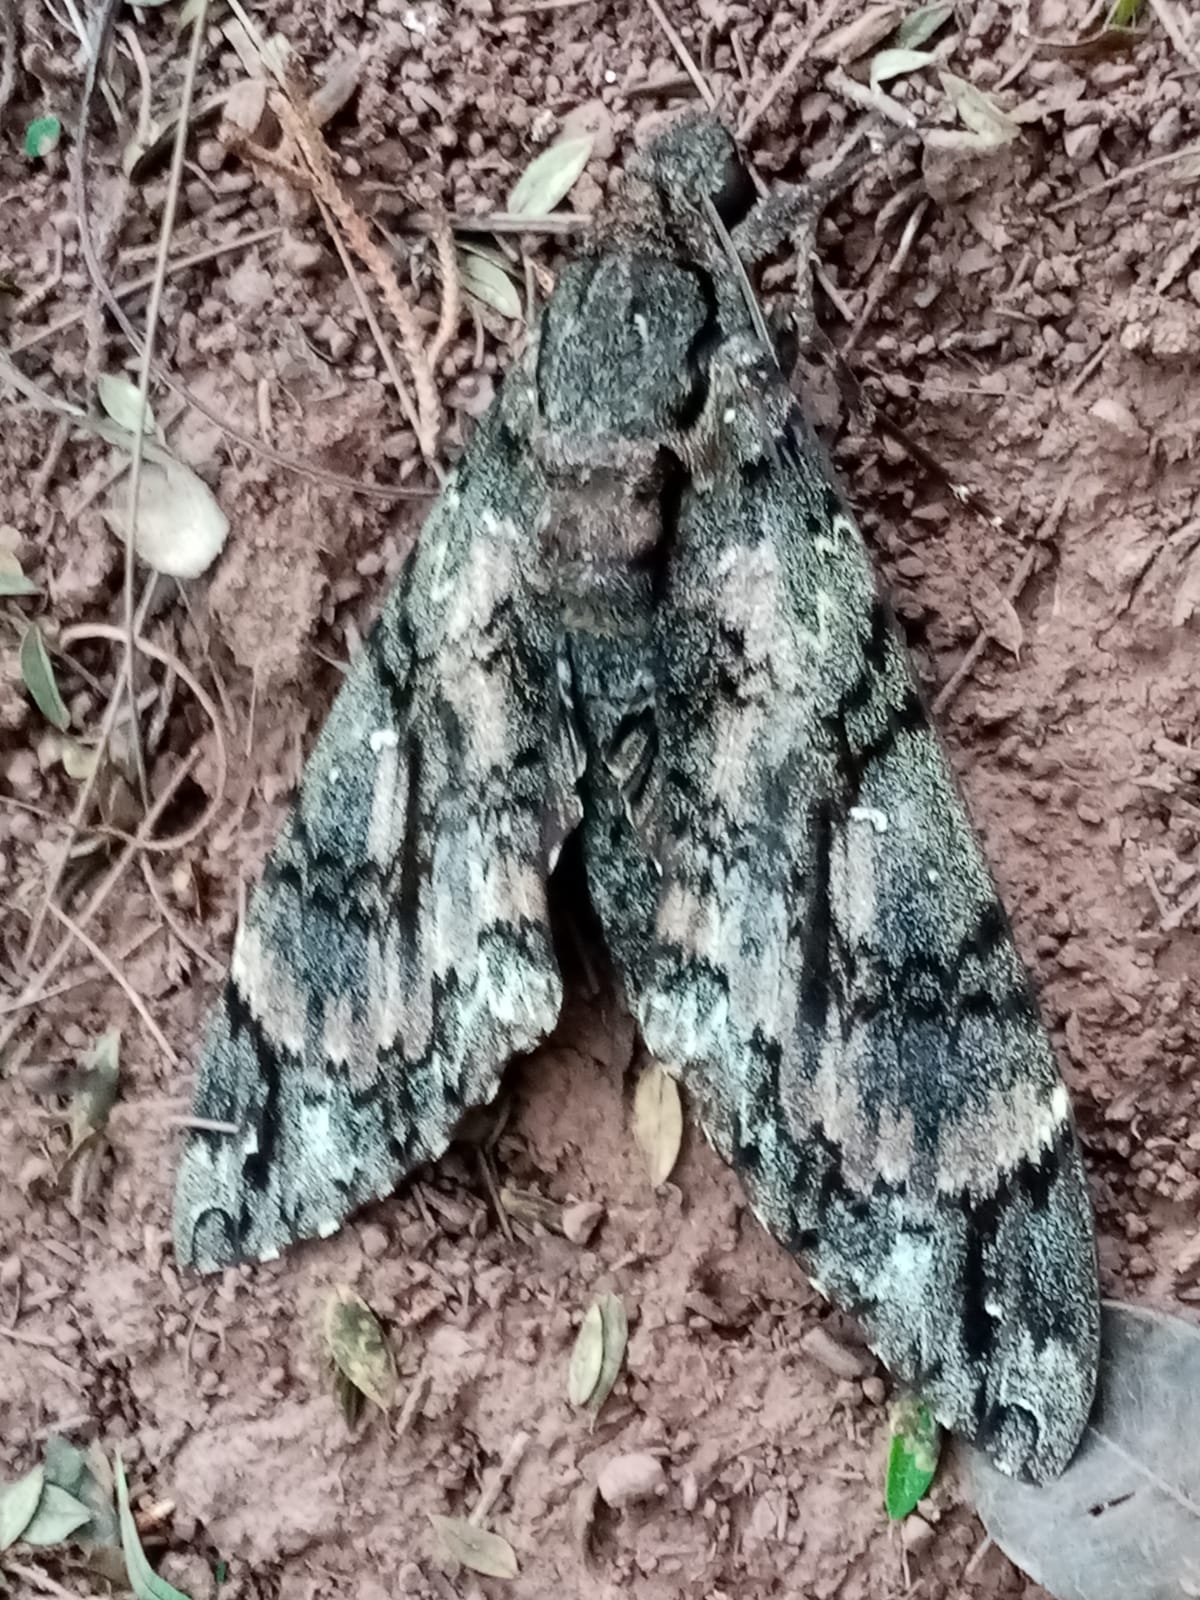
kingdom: Animalia
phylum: Arthropoda
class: Insecta
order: Lepidoptera
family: Sphingidae
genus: Cocytius
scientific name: Cocytius antaeus
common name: Giant sphinx
